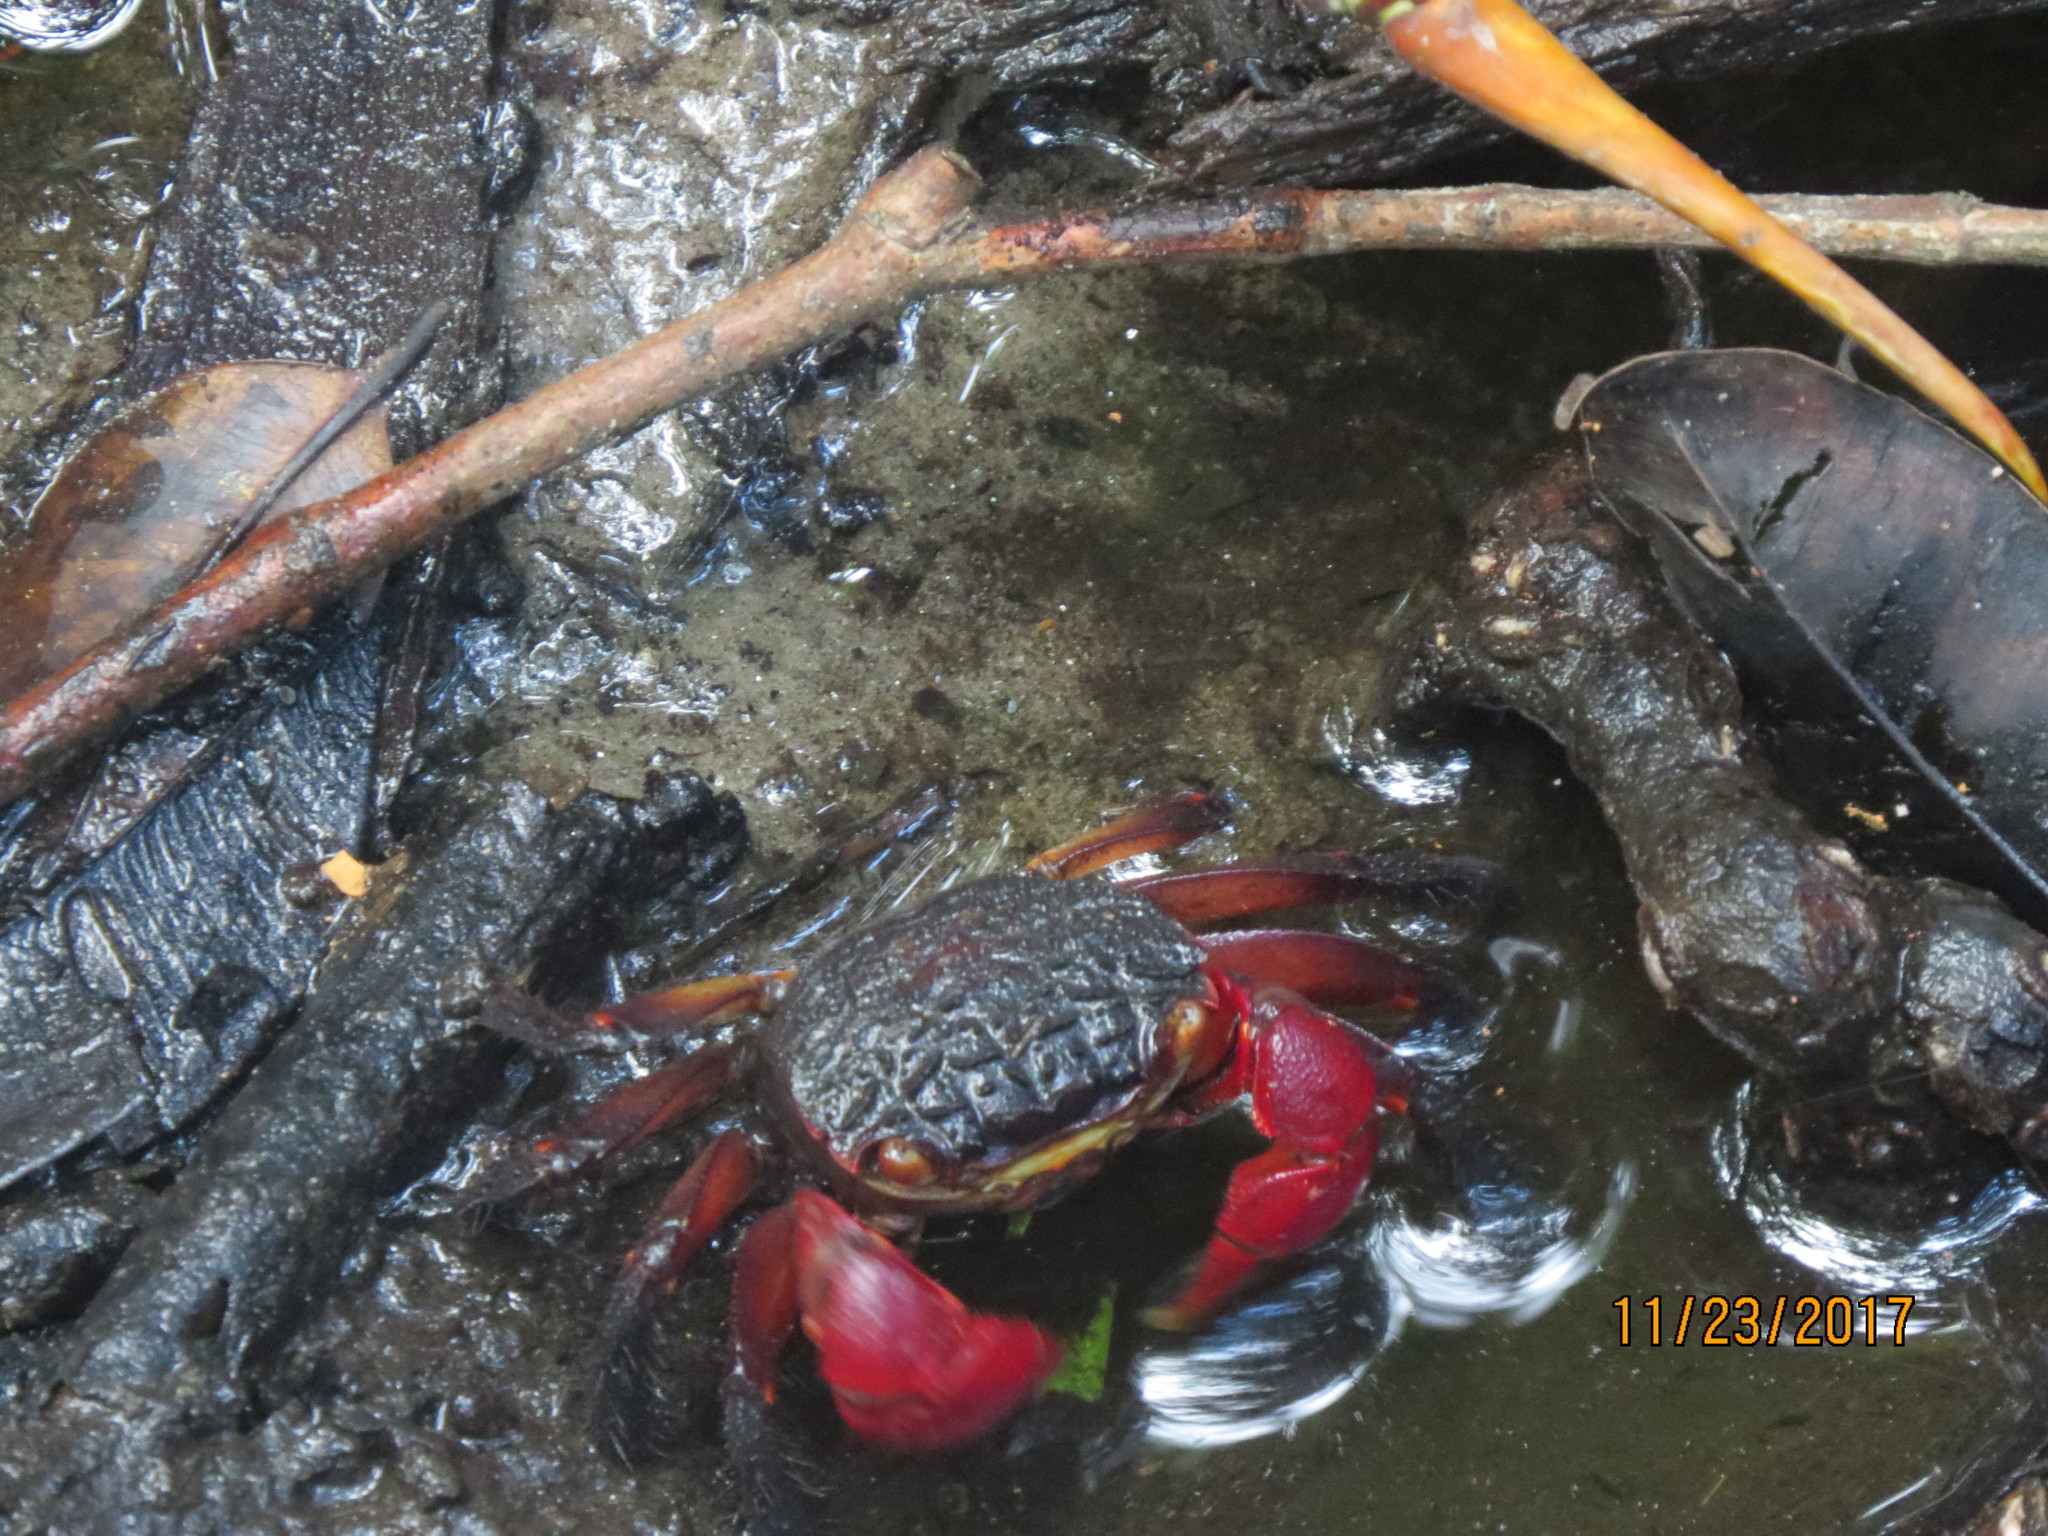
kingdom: Animalia
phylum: Arthropoda
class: Malacostraca
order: Decapoda
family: Sesarmidae
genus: Neosarmatium
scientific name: Neosarmatium fourmanoiri
